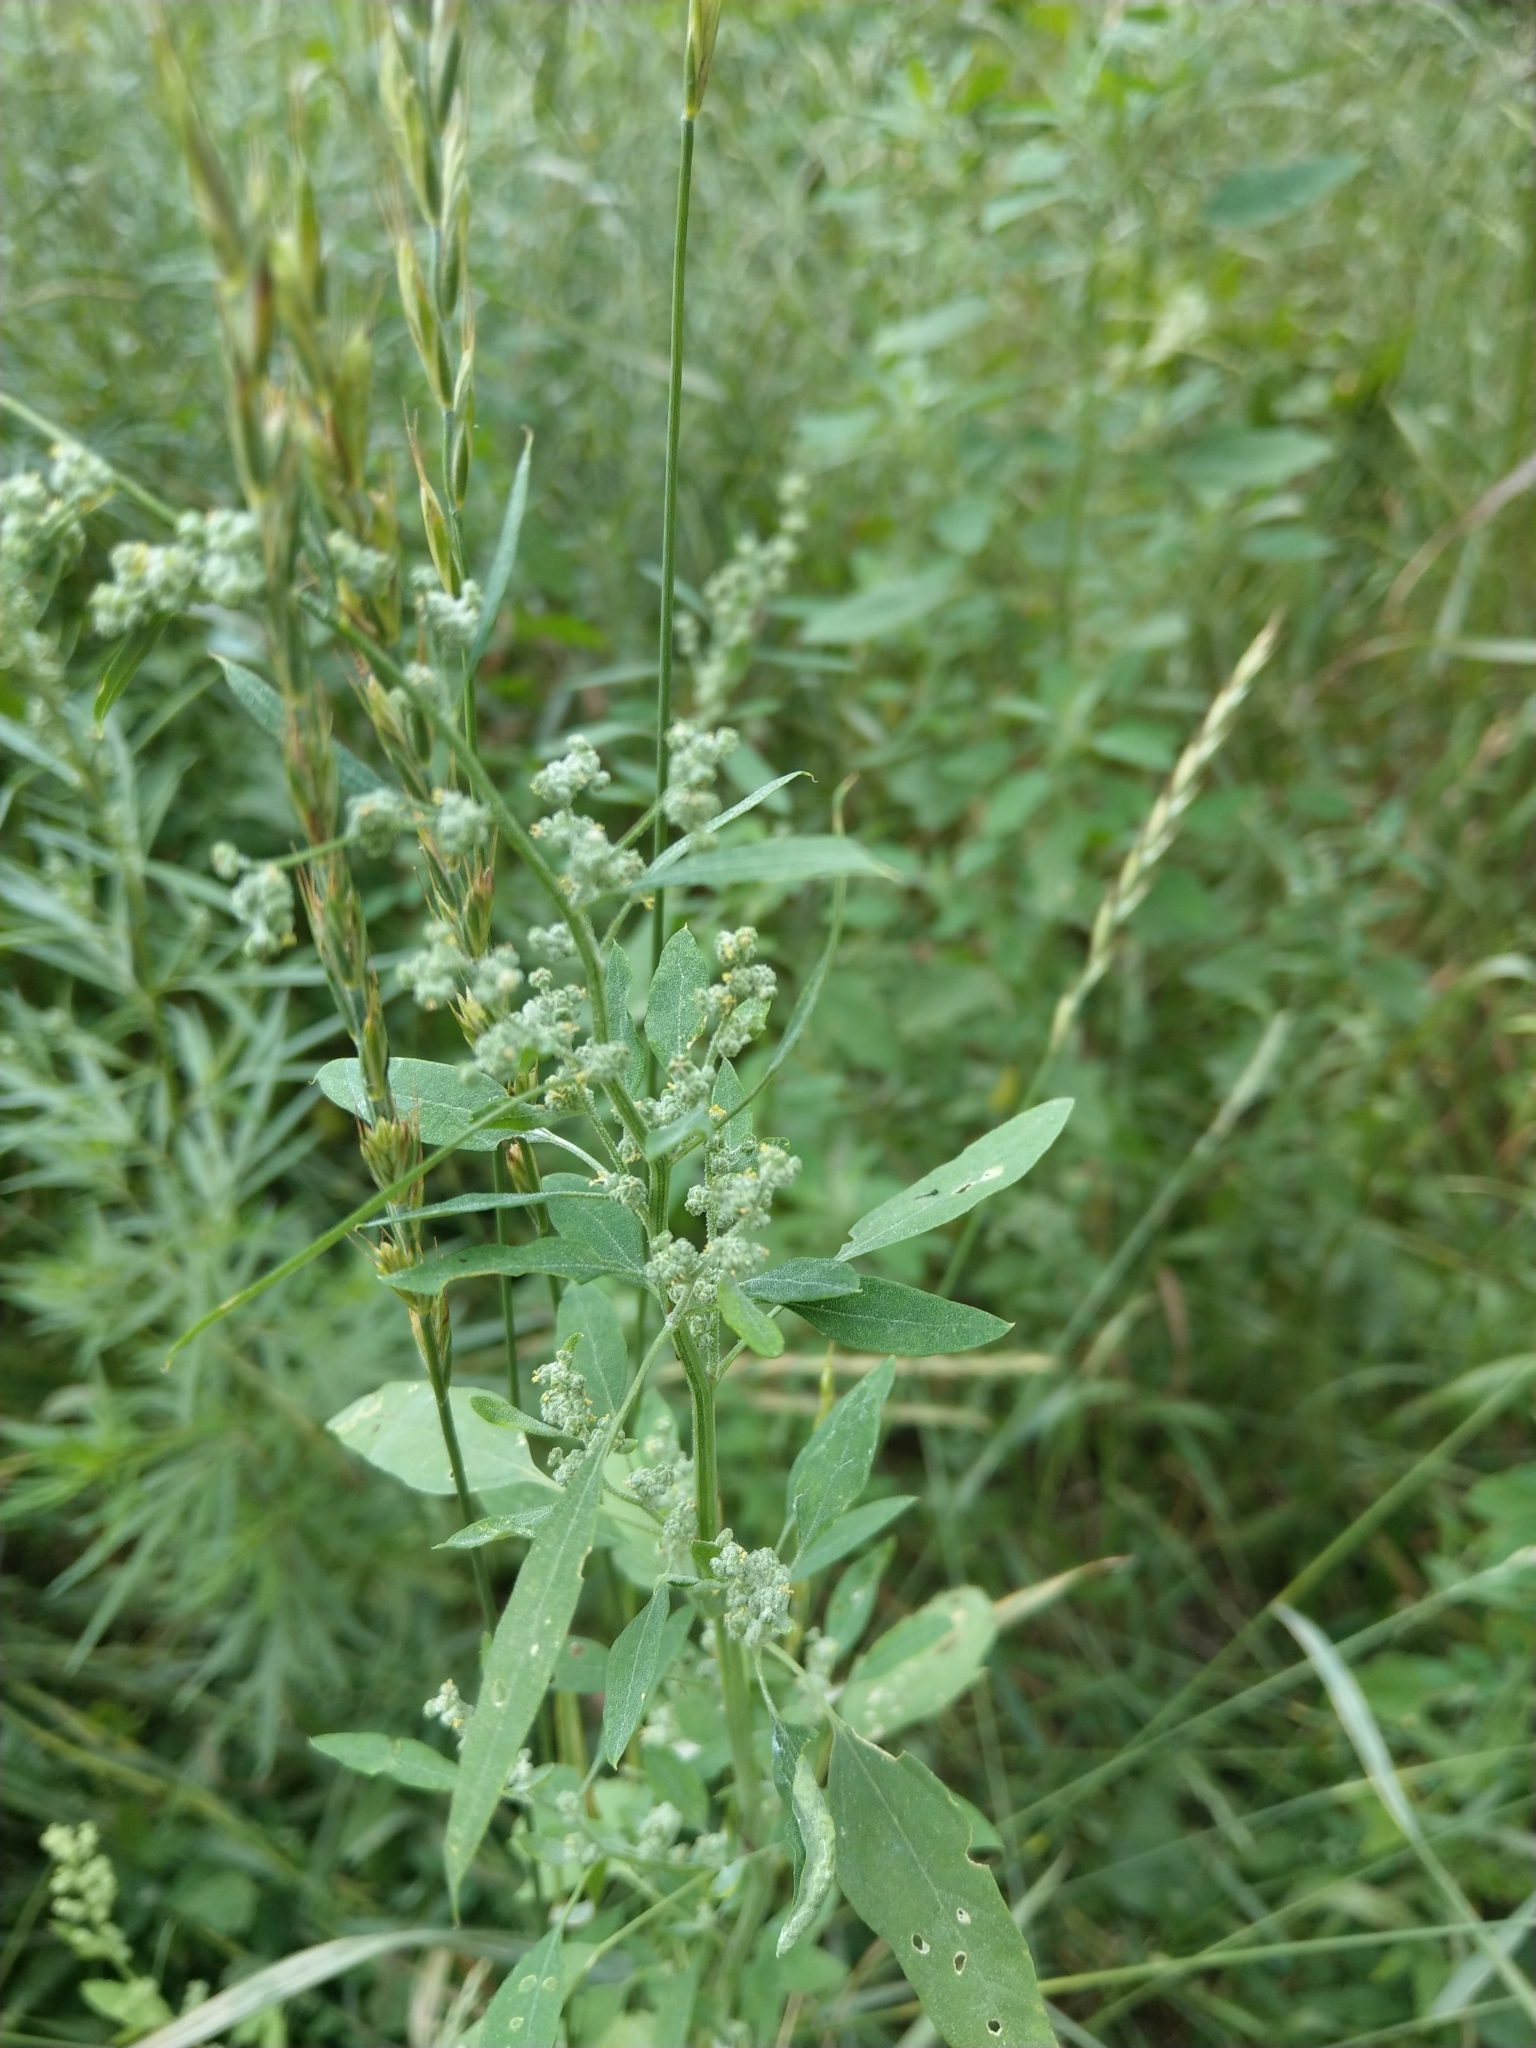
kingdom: Plantae
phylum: Tracheophyta
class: Magnoliopsida
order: Caryophyllales
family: Amaranthaceae
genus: Chenopodium
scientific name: Chenopodium album
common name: Fat-hen
